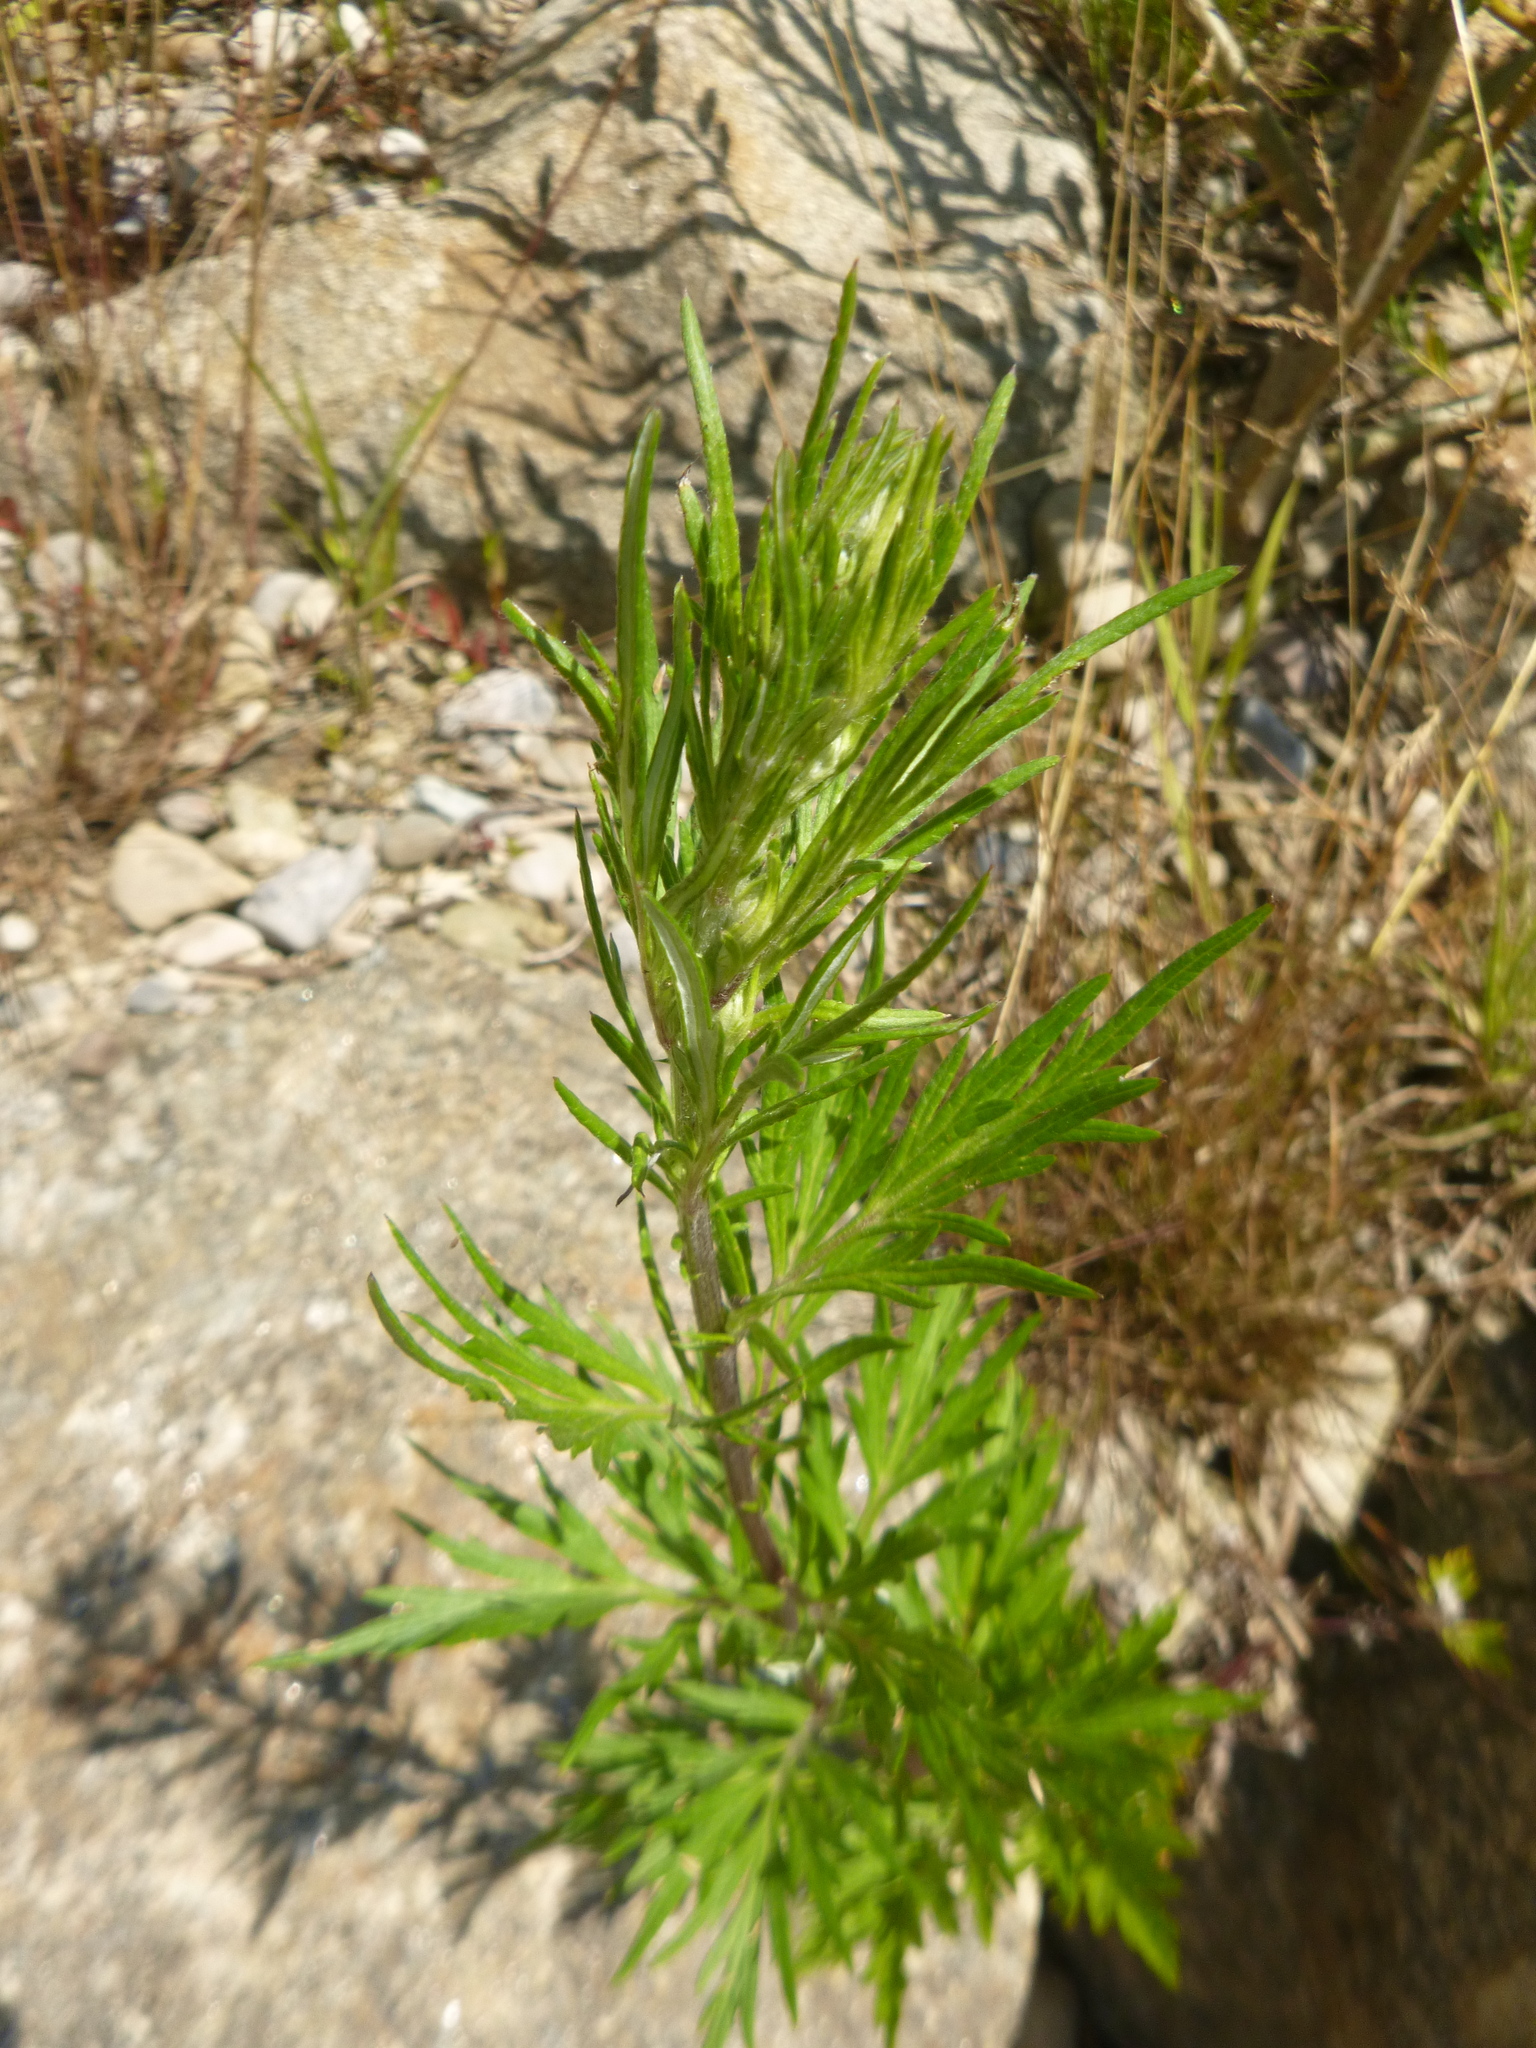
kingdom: Plantae
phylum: Tracheophyta
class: Magnoliopsida
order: Asterales
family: Asteraceae
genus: Artemisia
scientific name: Artemisia vulgaris
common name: Mugwort
